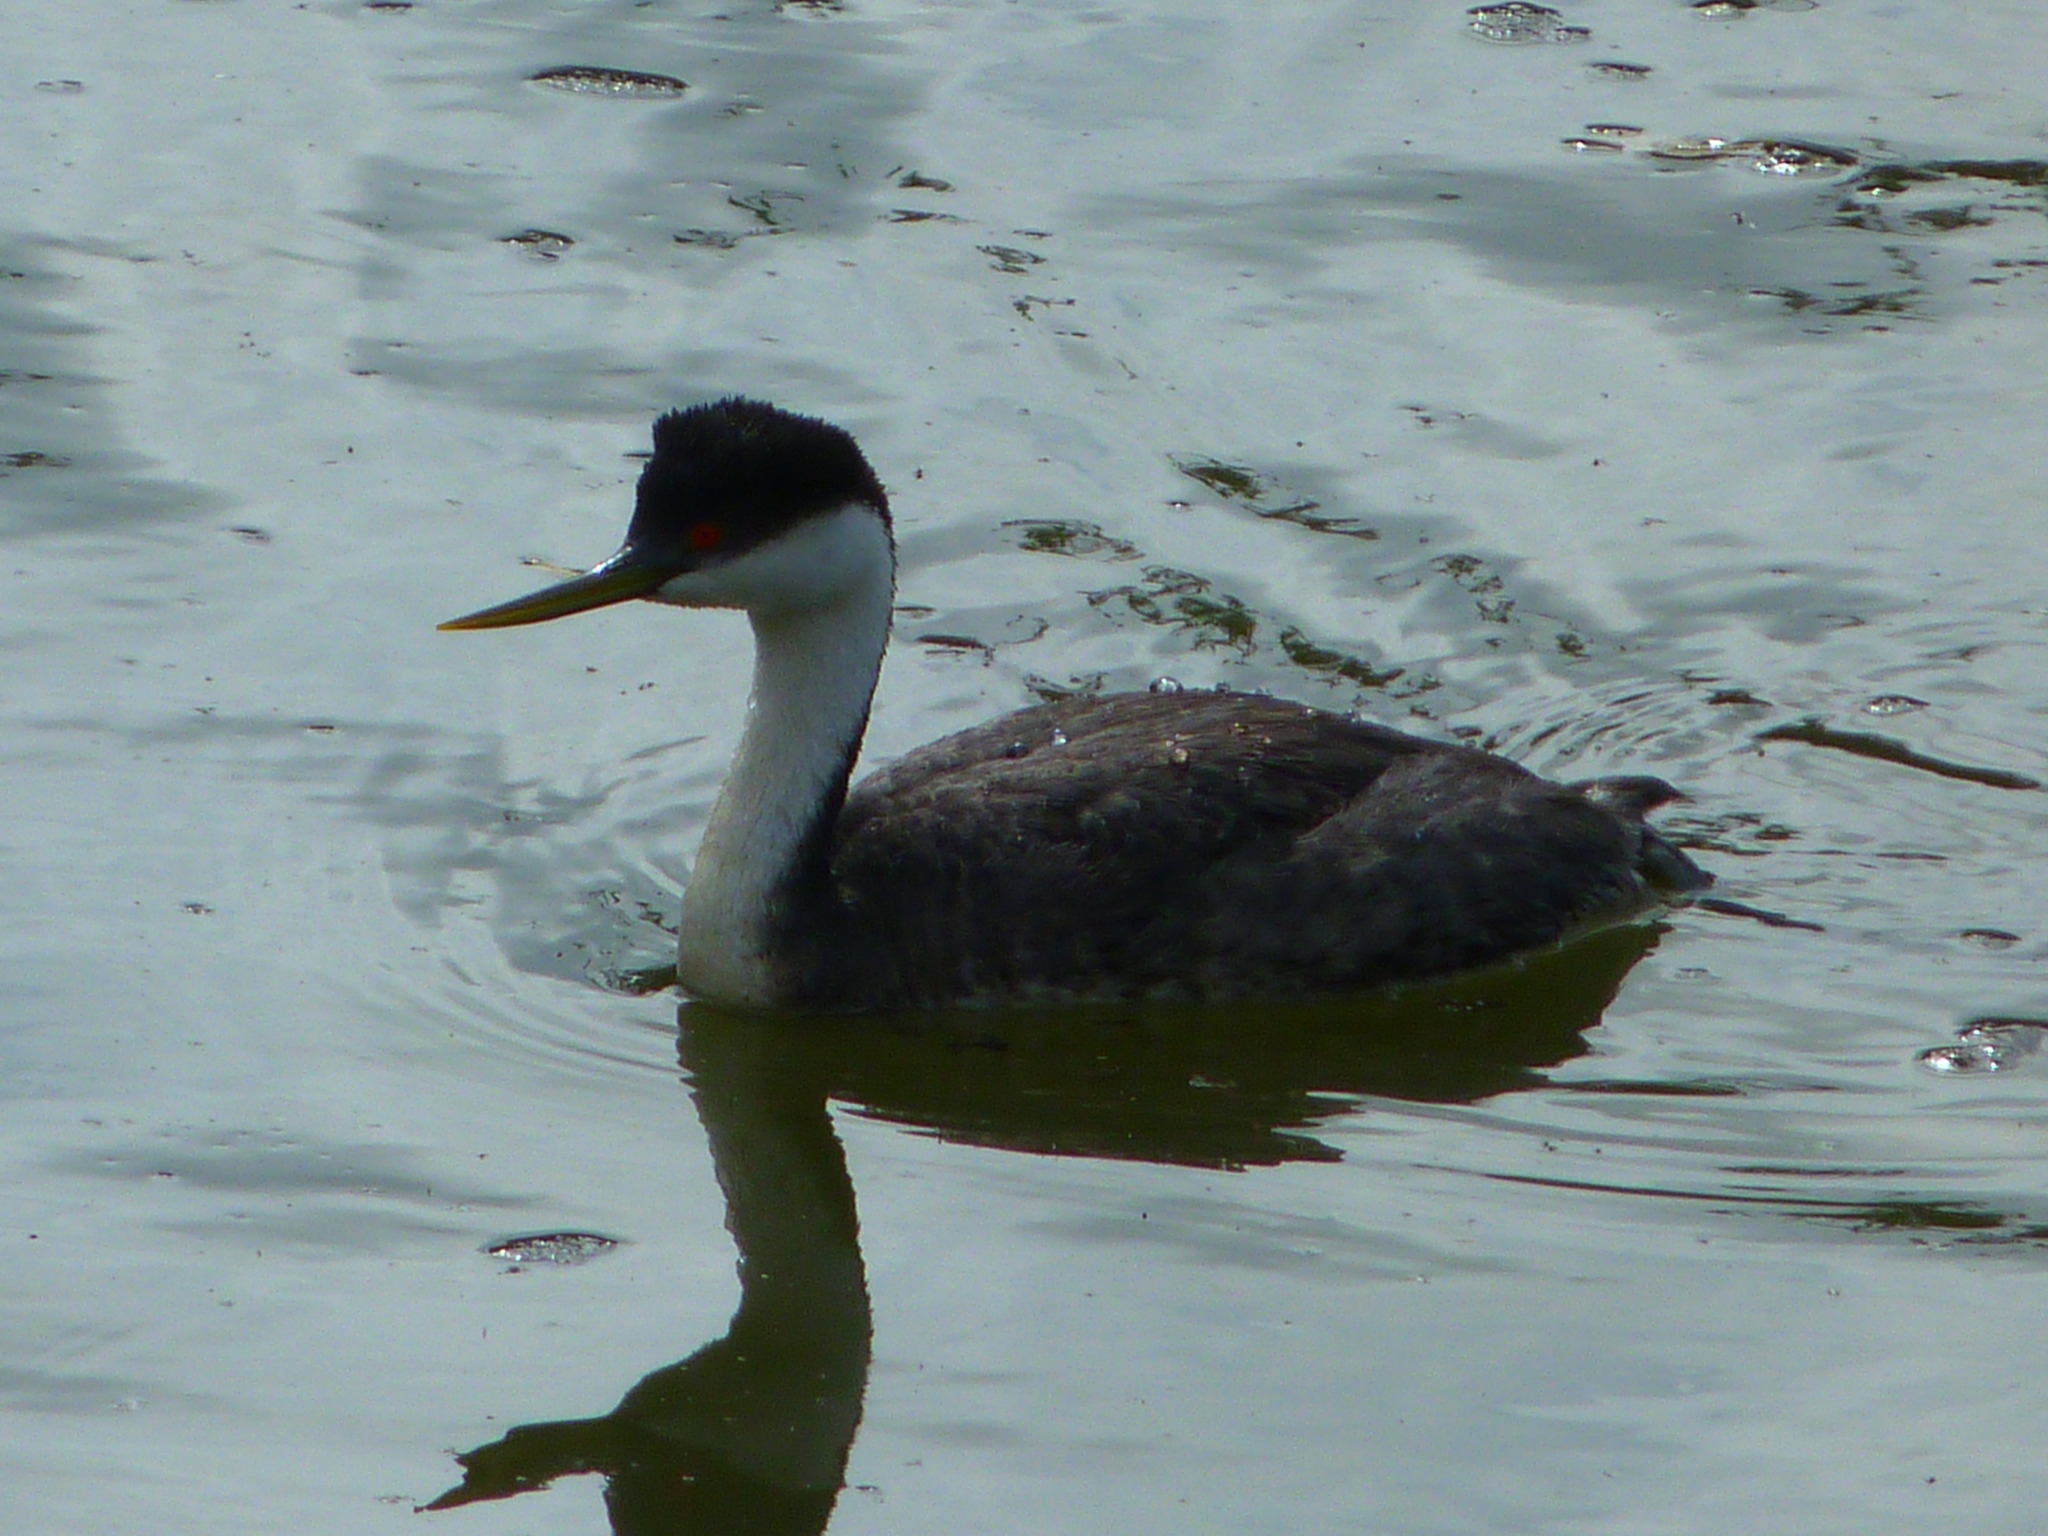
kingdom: Animalia
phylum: Chordata
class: Aves
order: Podicipediformes
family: Podicipedidae
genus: Aechmophorus
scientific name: Aechmophorus occidentalis
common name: Western grebe
